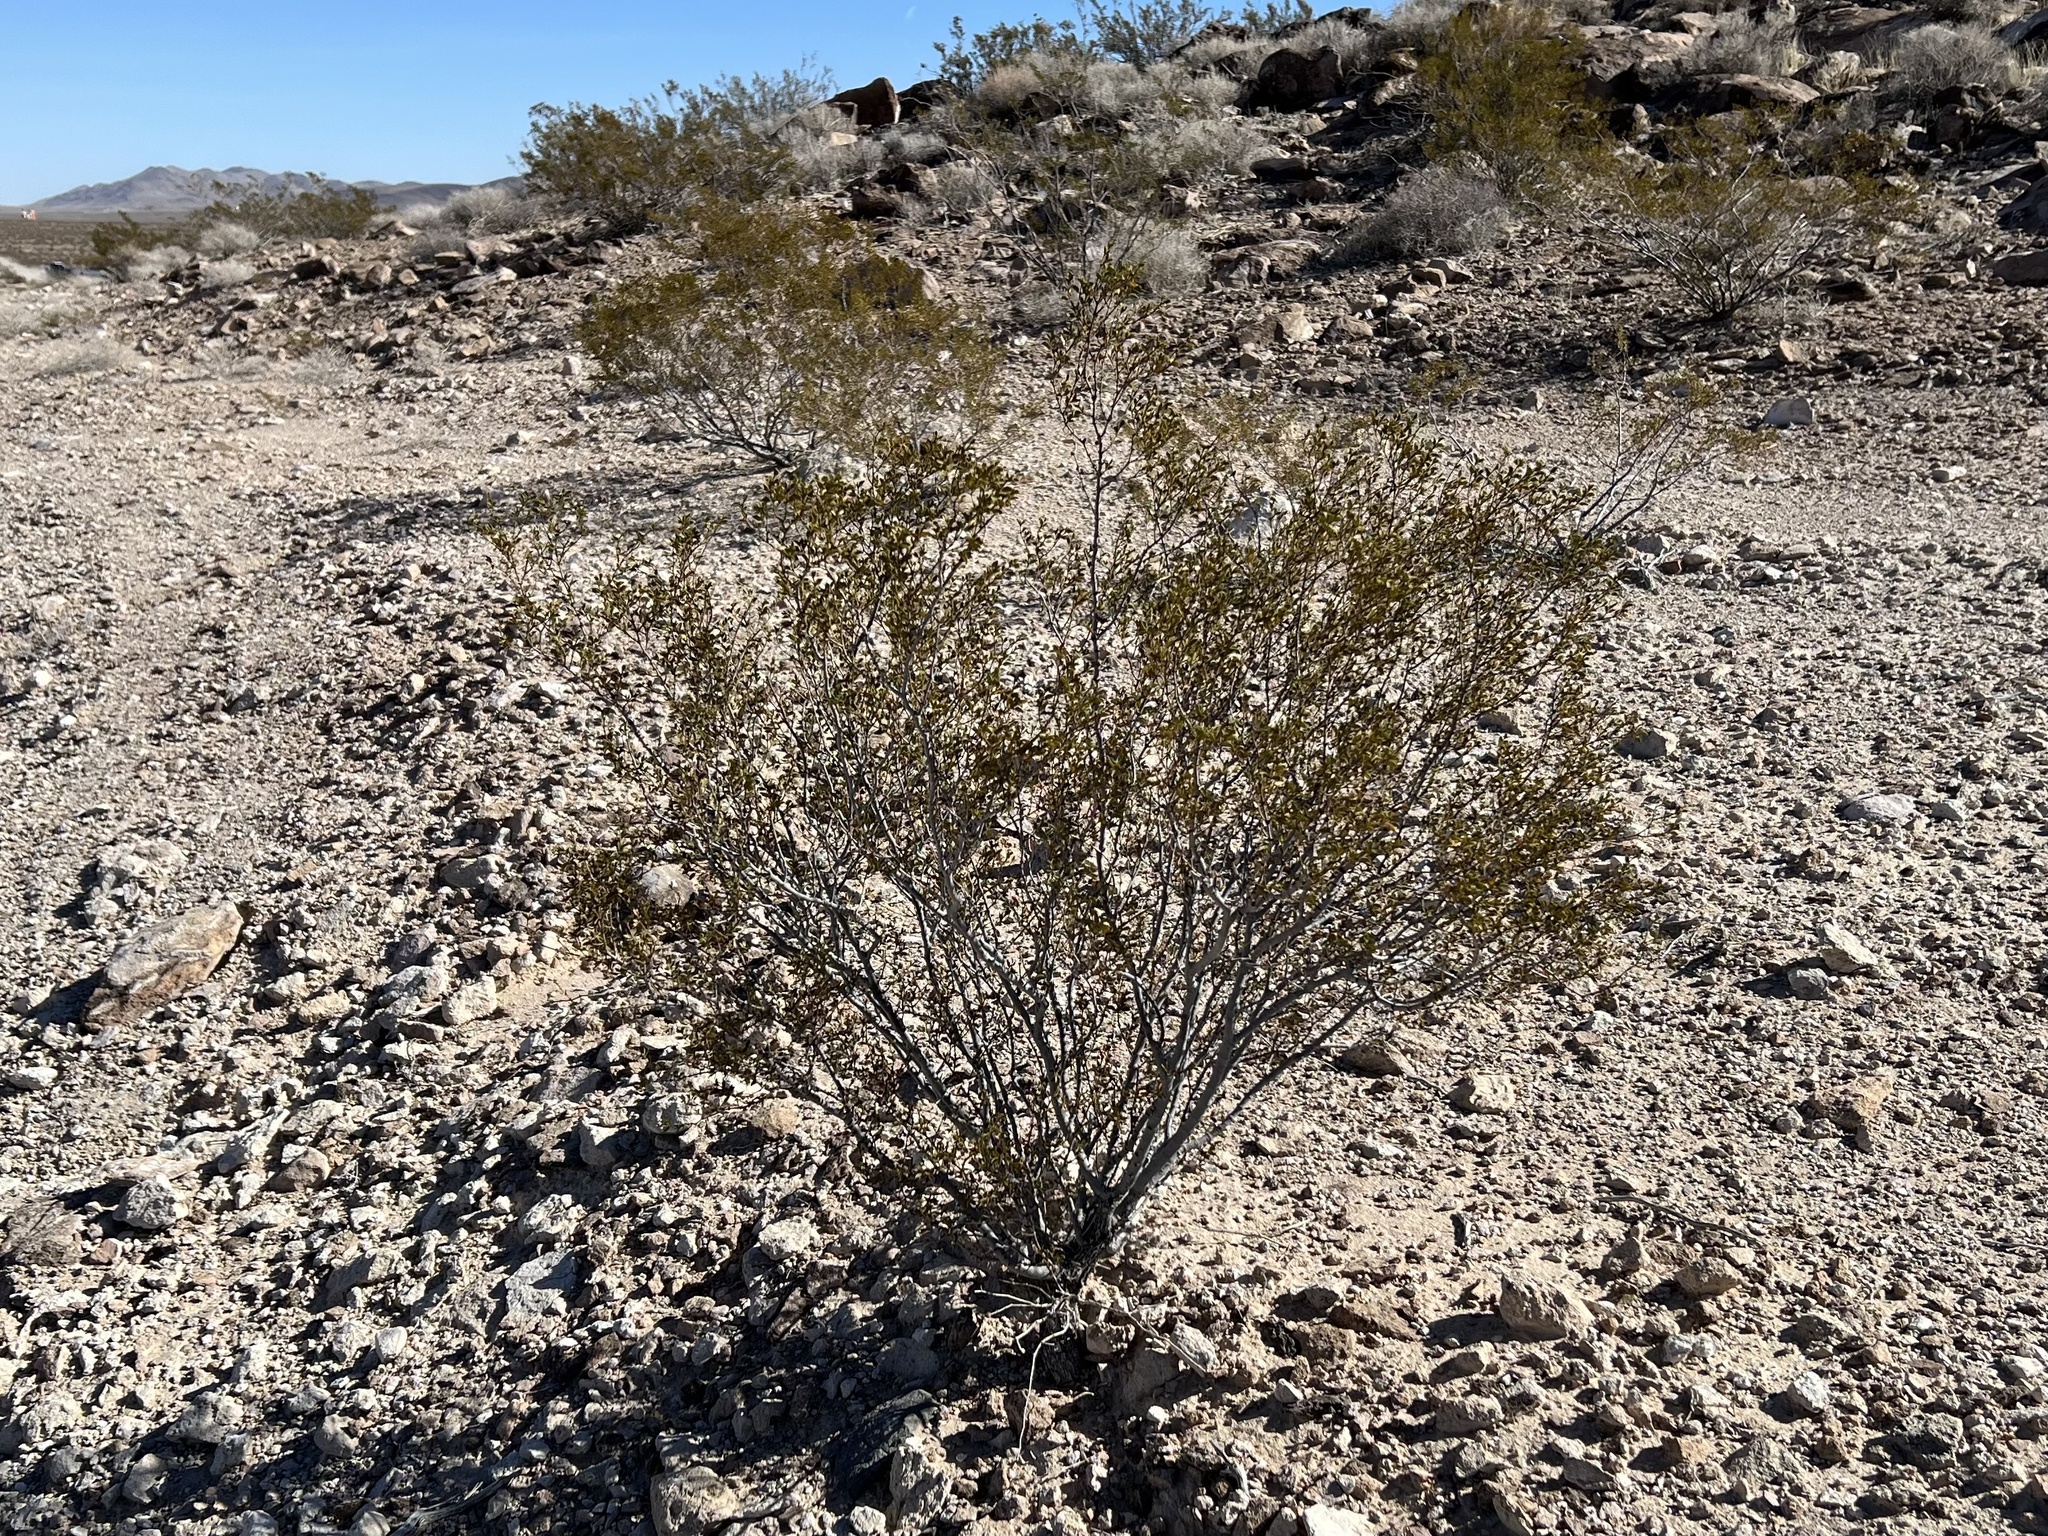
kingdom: Plantae
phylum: Tracheophyta
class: Magnoliopsida
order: Zygophyllales
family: Zygophyllaceae
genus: Larrea
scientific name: Larrea tridentata
